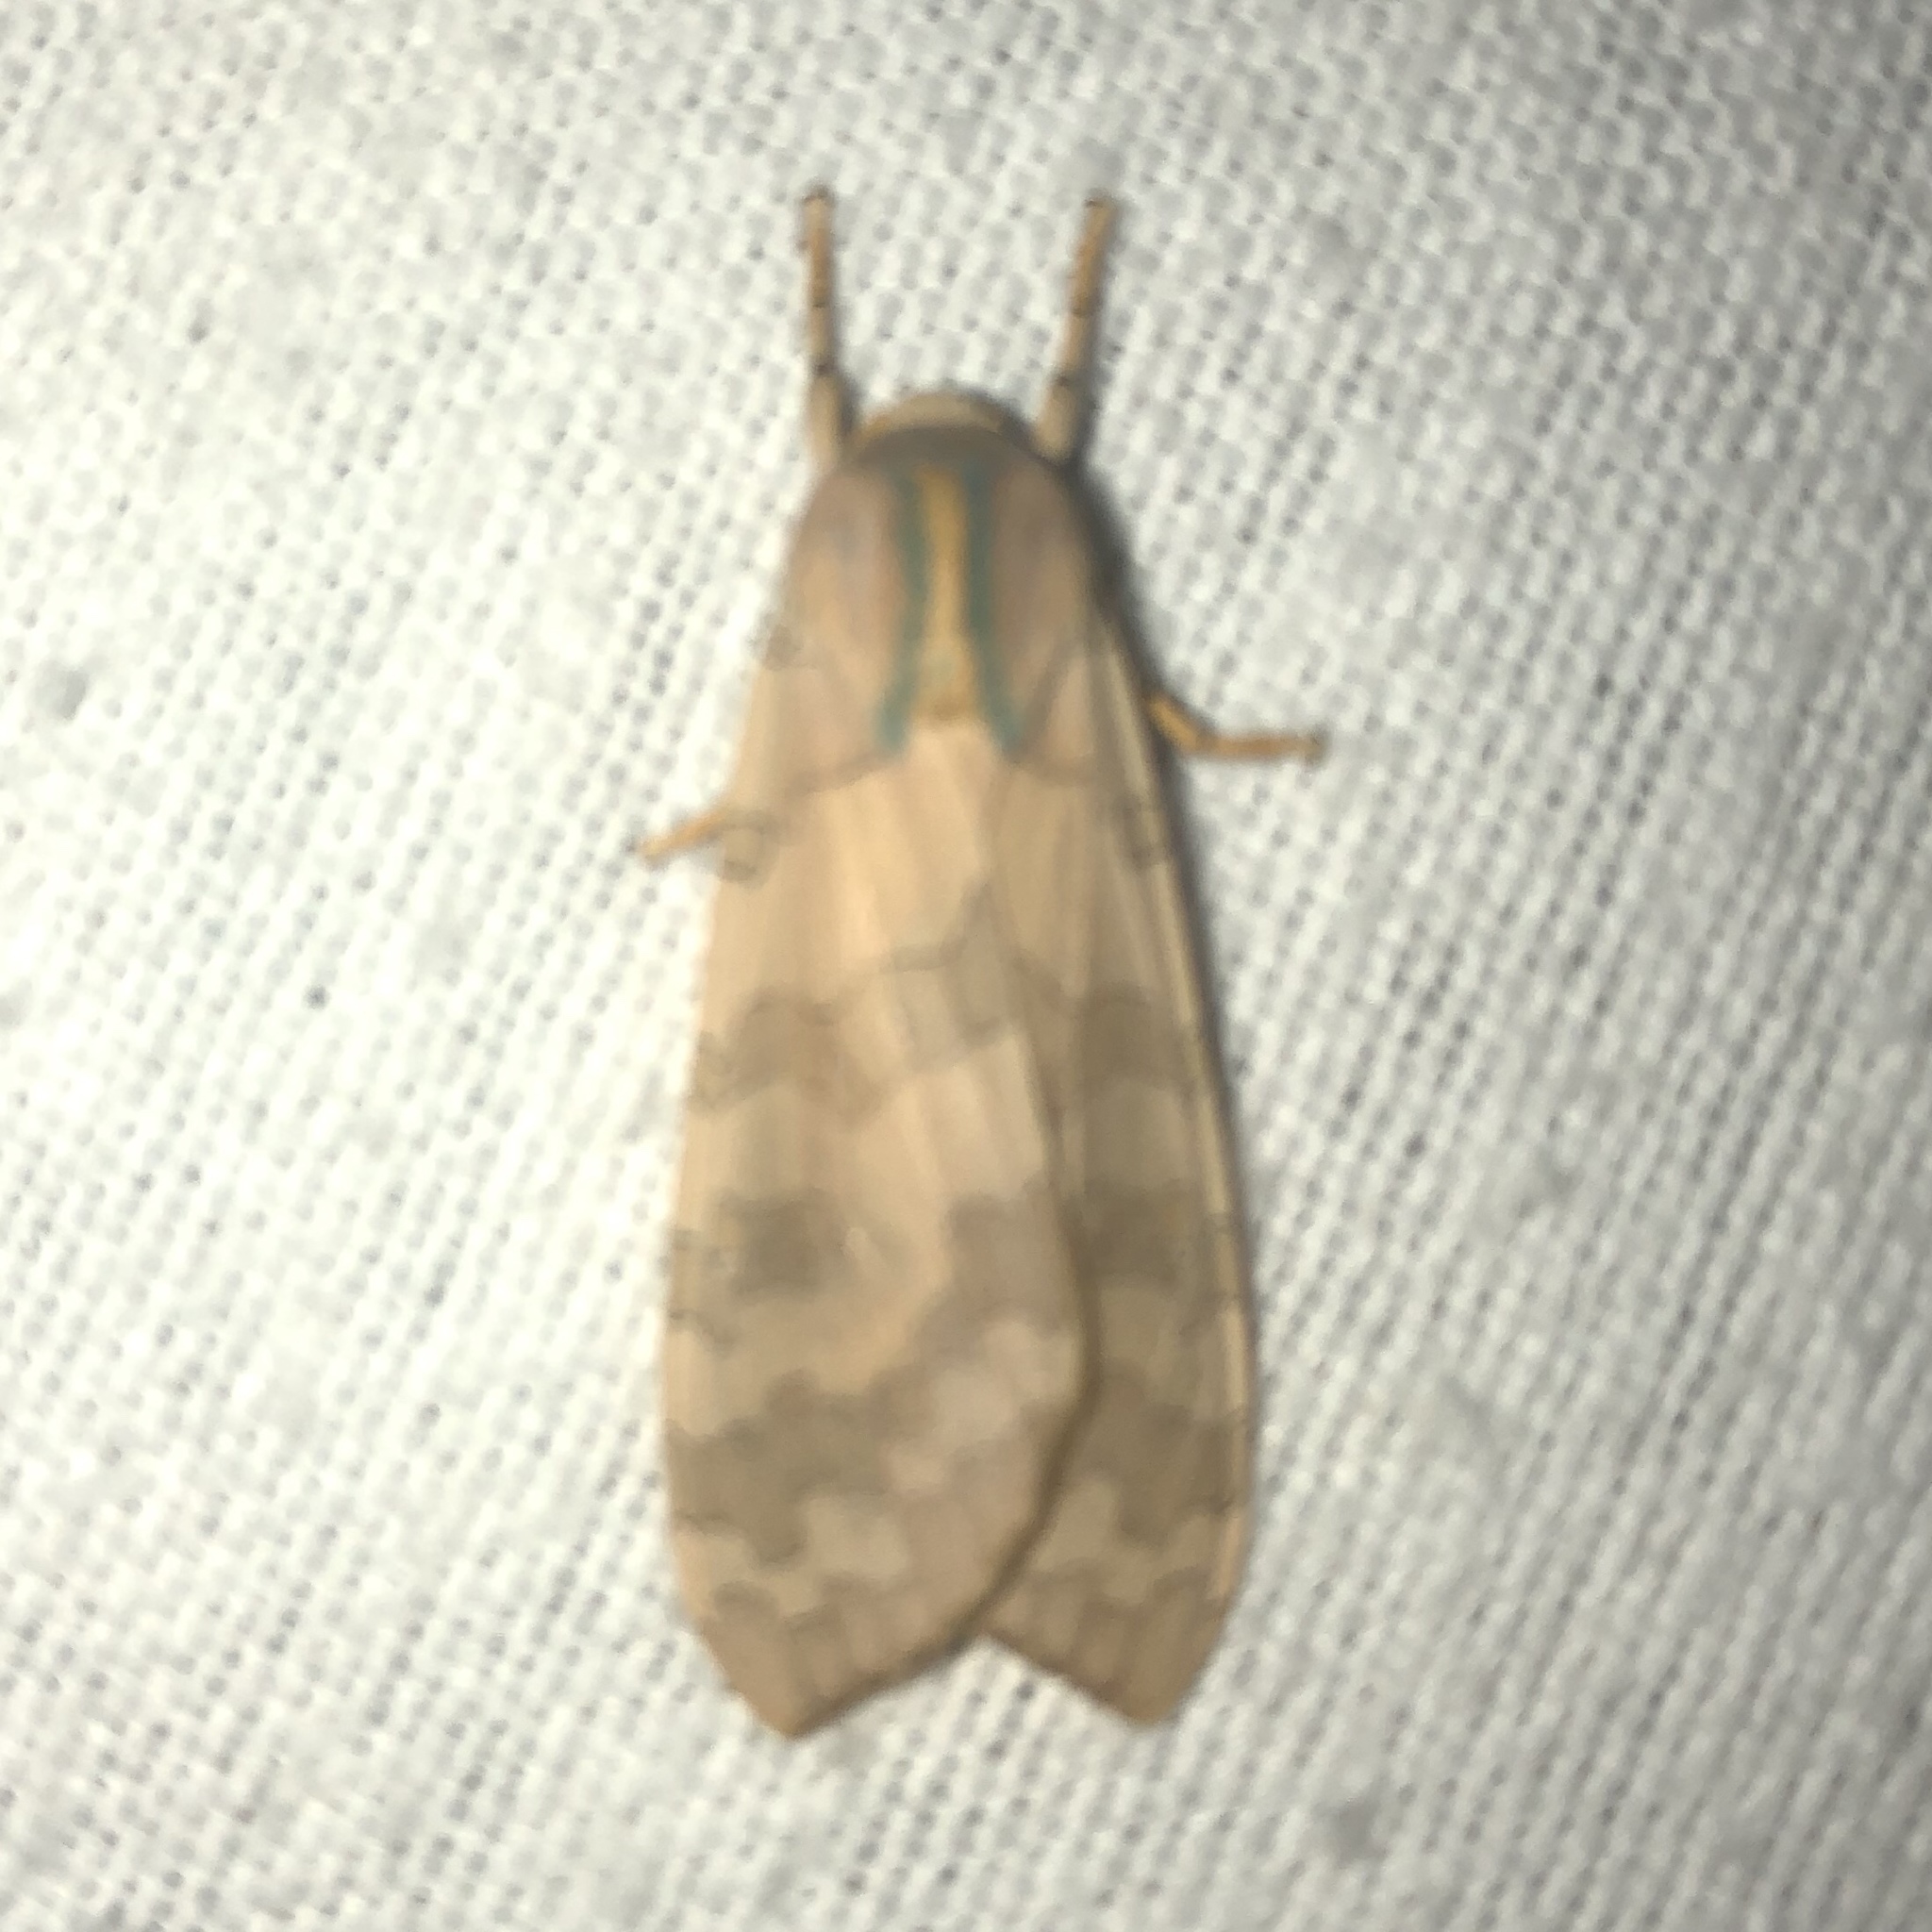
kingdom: Animalia
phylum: Arthropoda
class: Insecta
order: Lepidoptera
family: Erebidae
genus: Halysidota
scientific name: Halysidota tessellaris
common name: Banded tussock moth
